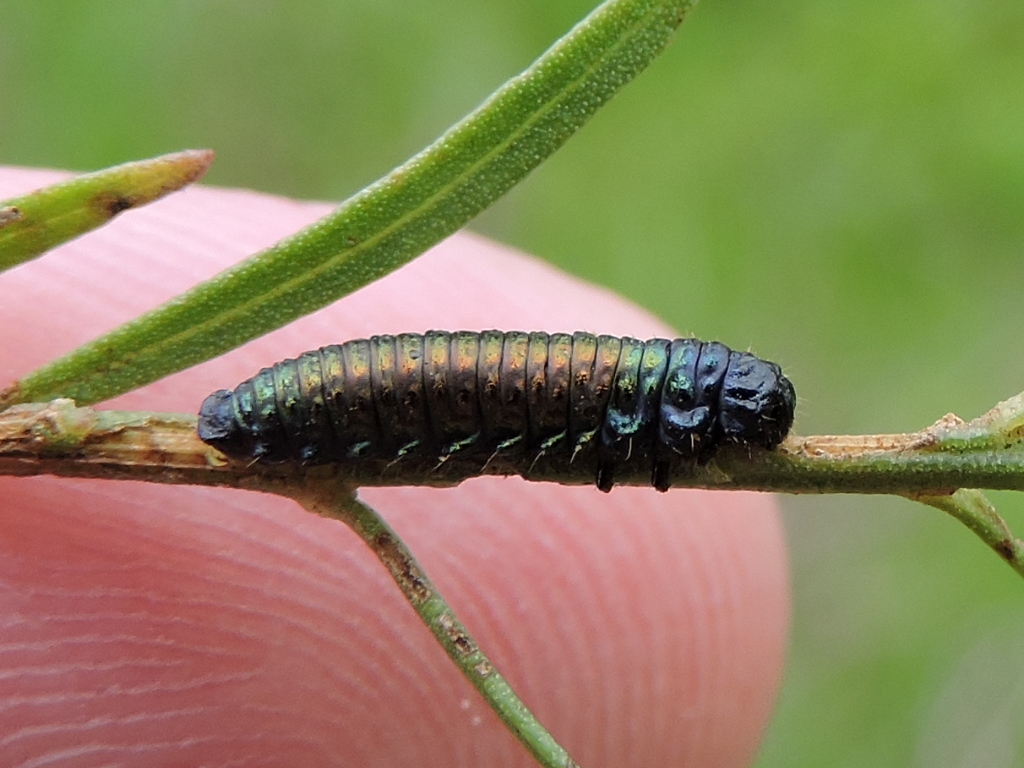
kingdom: Animalia
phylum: Arthropoda
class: Insecta
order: Coleoptera
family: Chrysomelidae
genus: Trirhabda
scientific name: Trirhabda bacharidis
